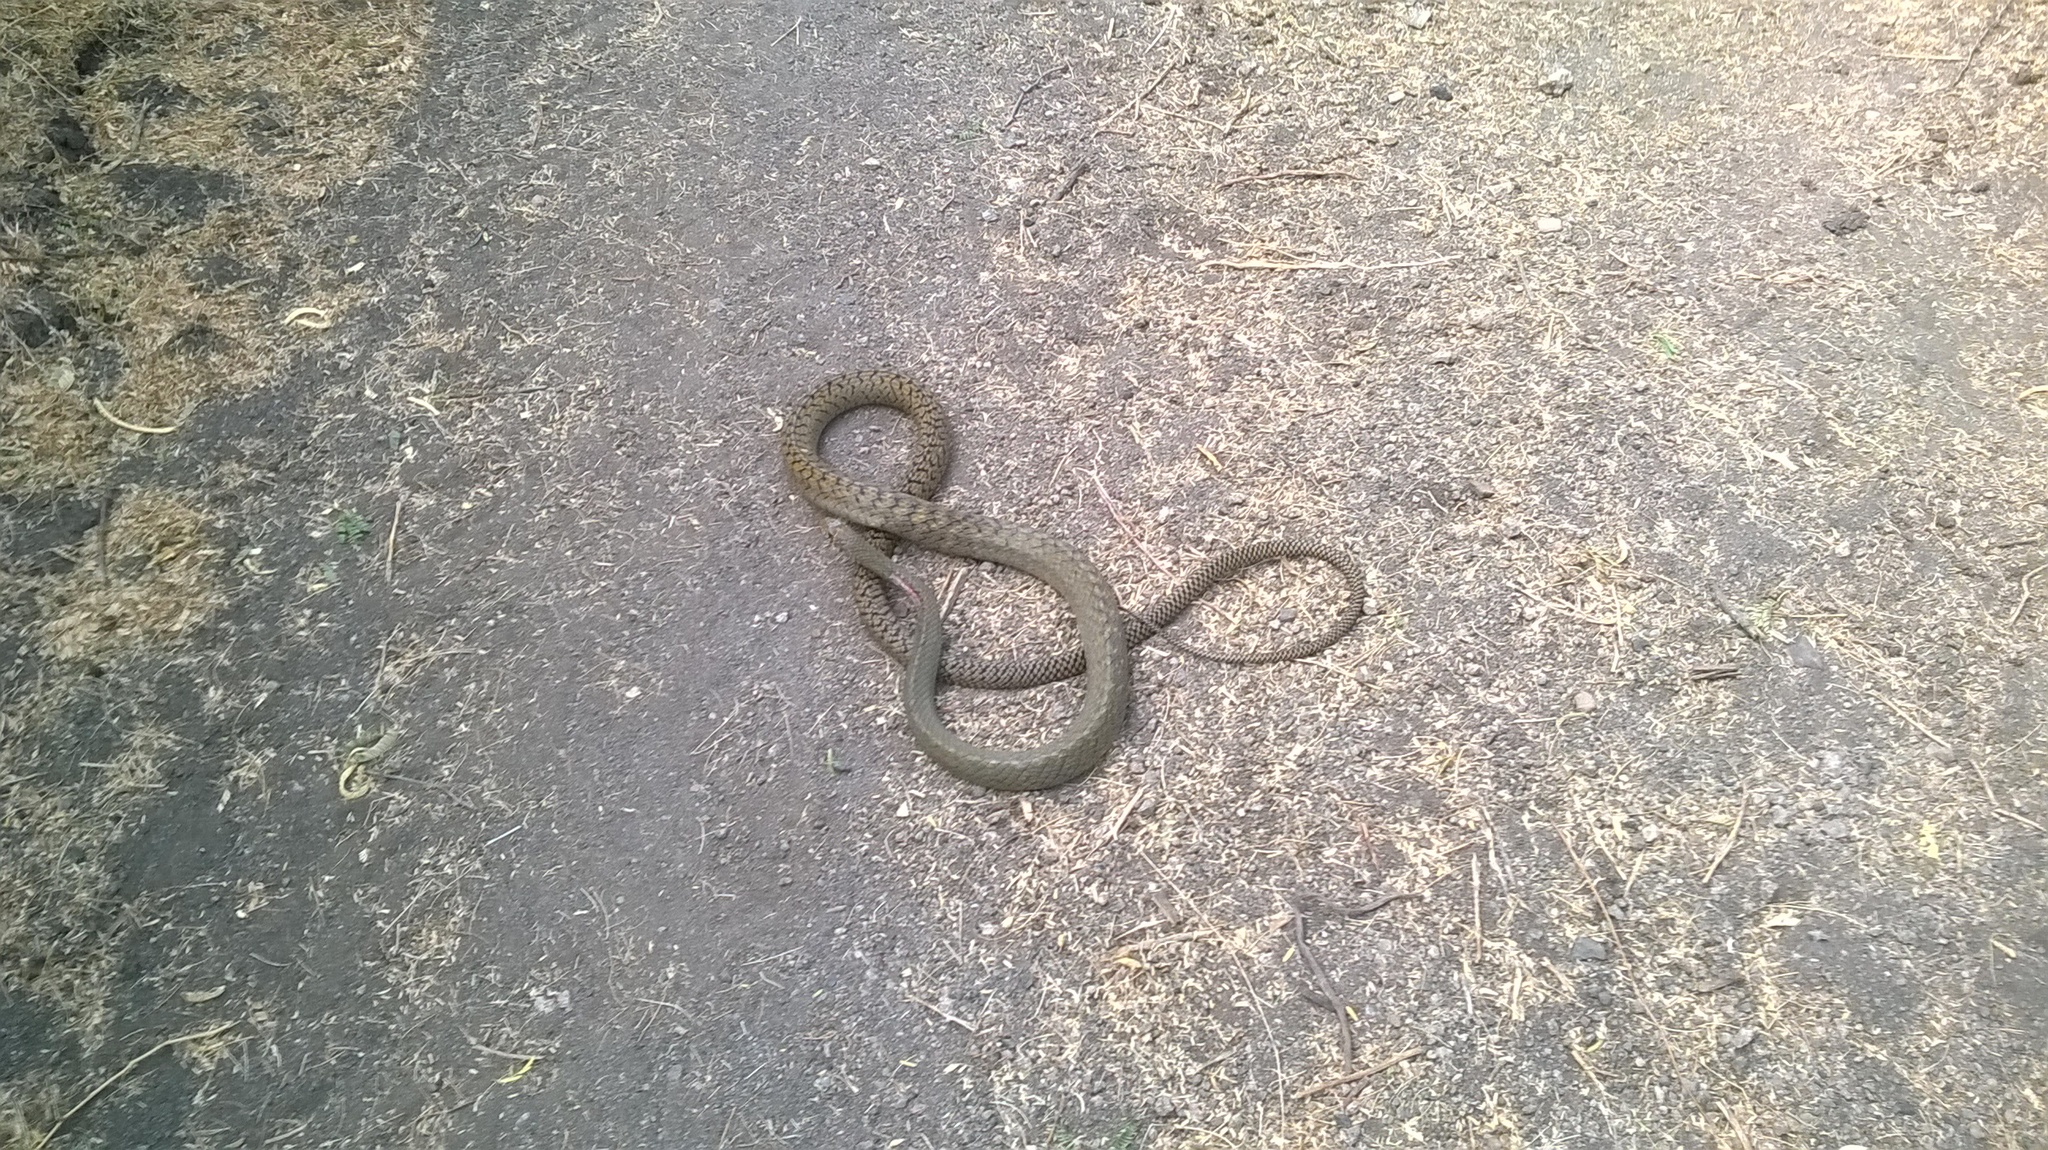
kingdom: Animalia
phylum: Chordata
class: Squamata
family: Colubridae
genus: Ptyas
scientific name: Ptyas mucosa
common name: Oriental ratsnake
